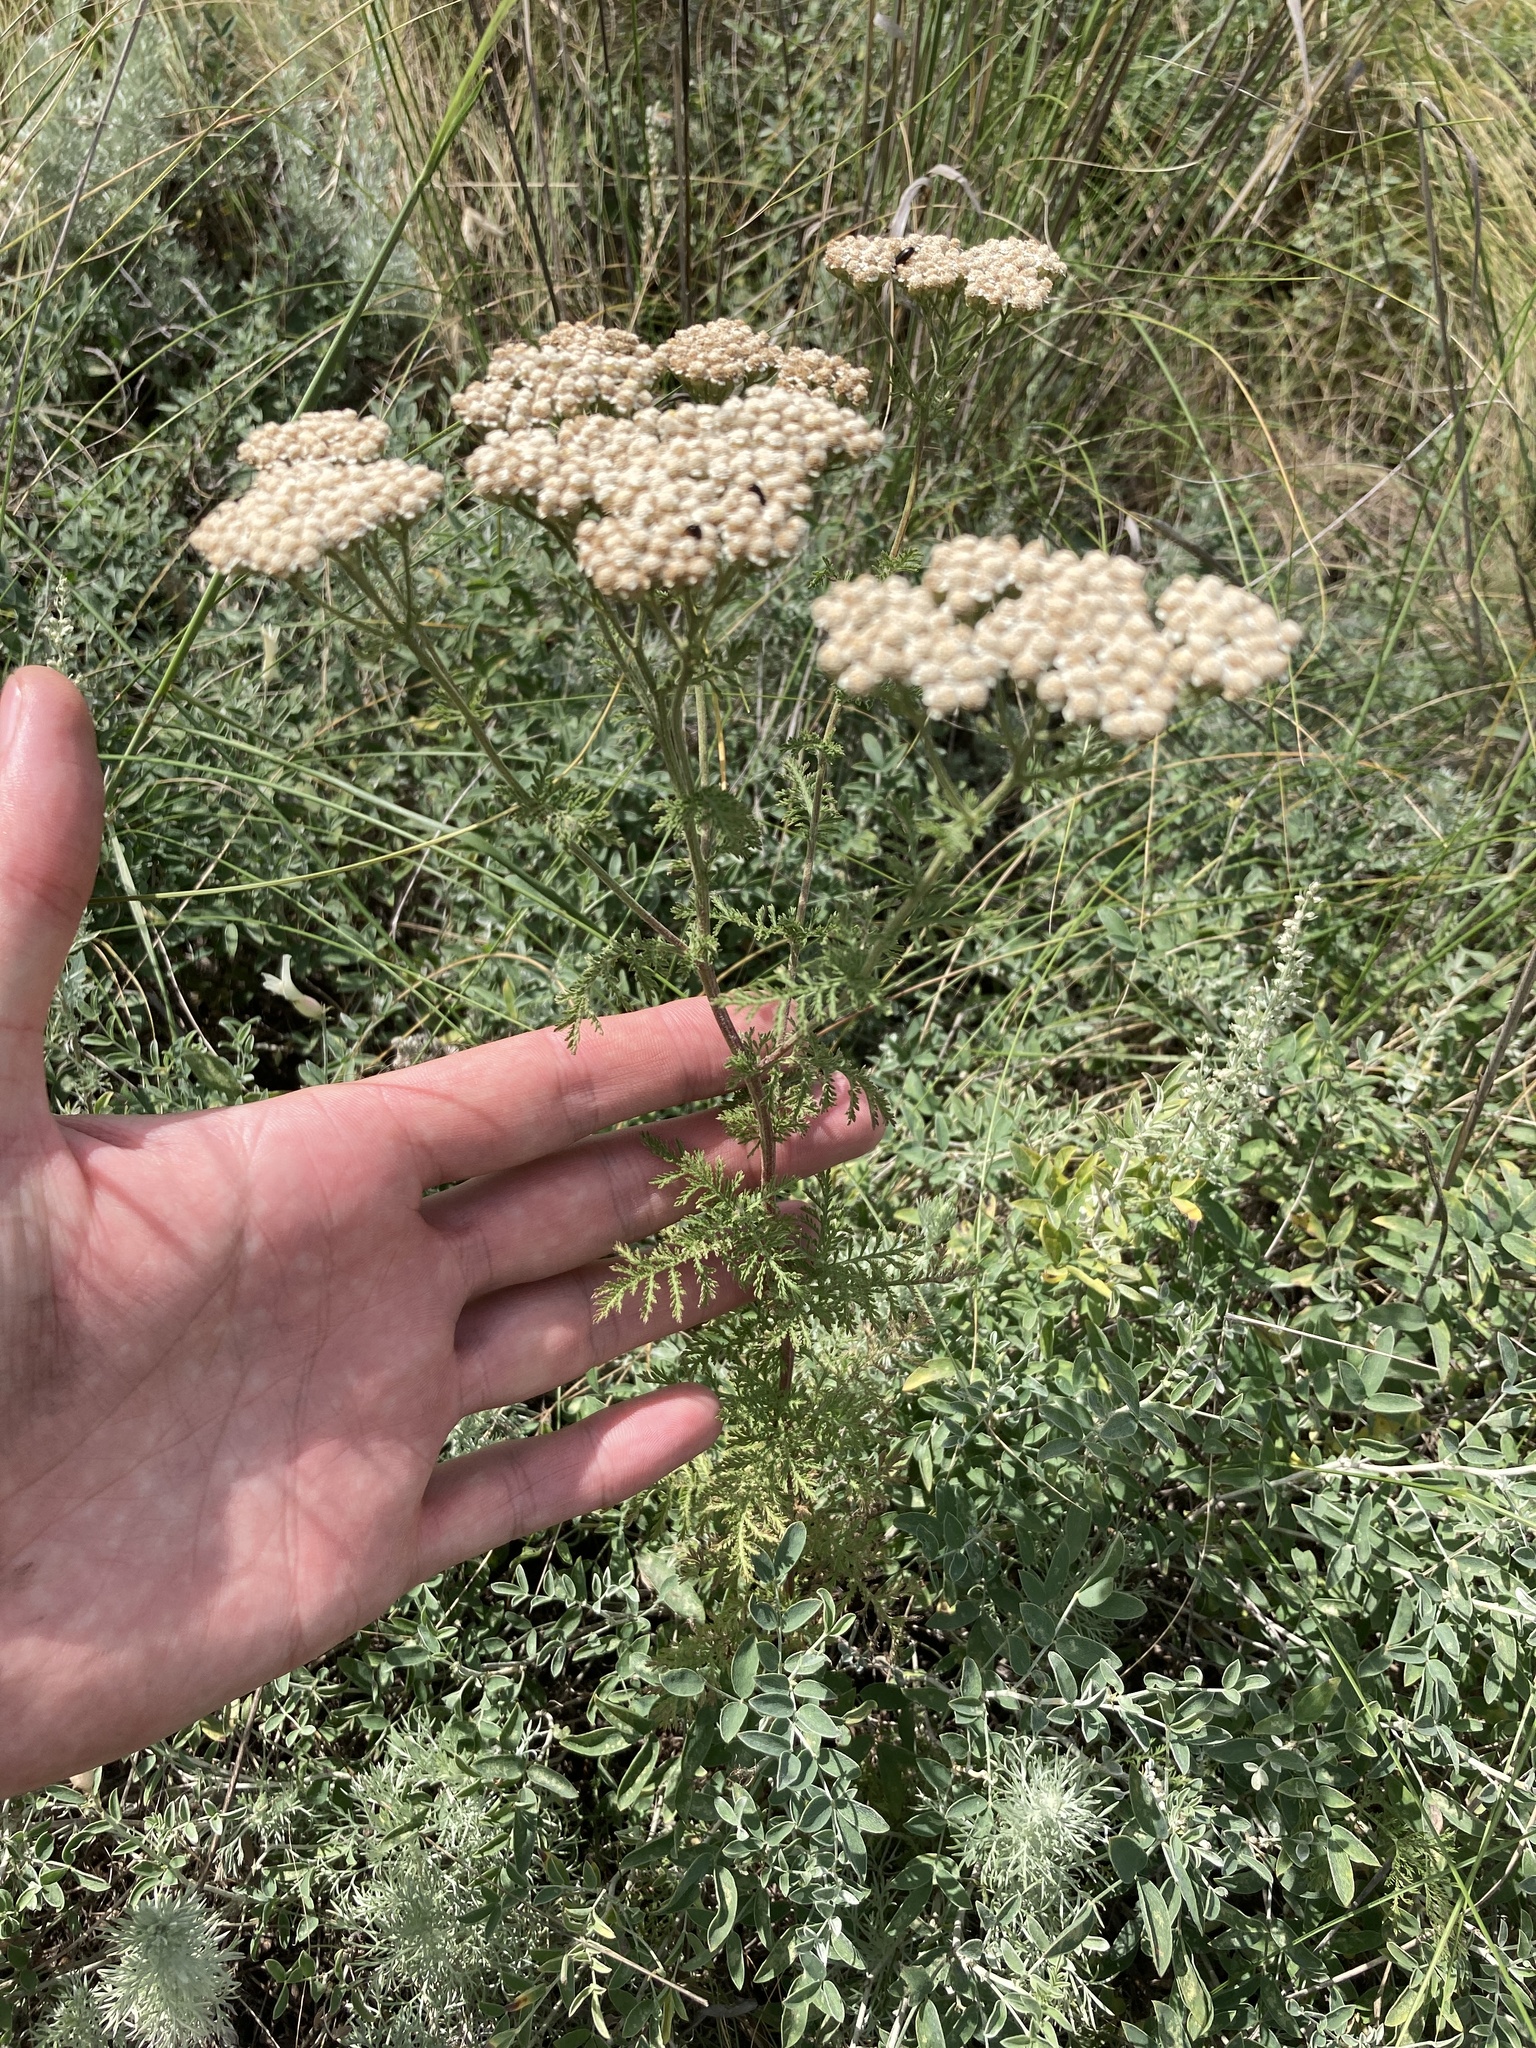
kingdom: Plantae
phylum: Tracheophyta
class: Magnoliopsida
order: Asterales
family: Asteraceae
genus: Achillea
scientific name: Achillea nobilis
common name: Noble yarrow
